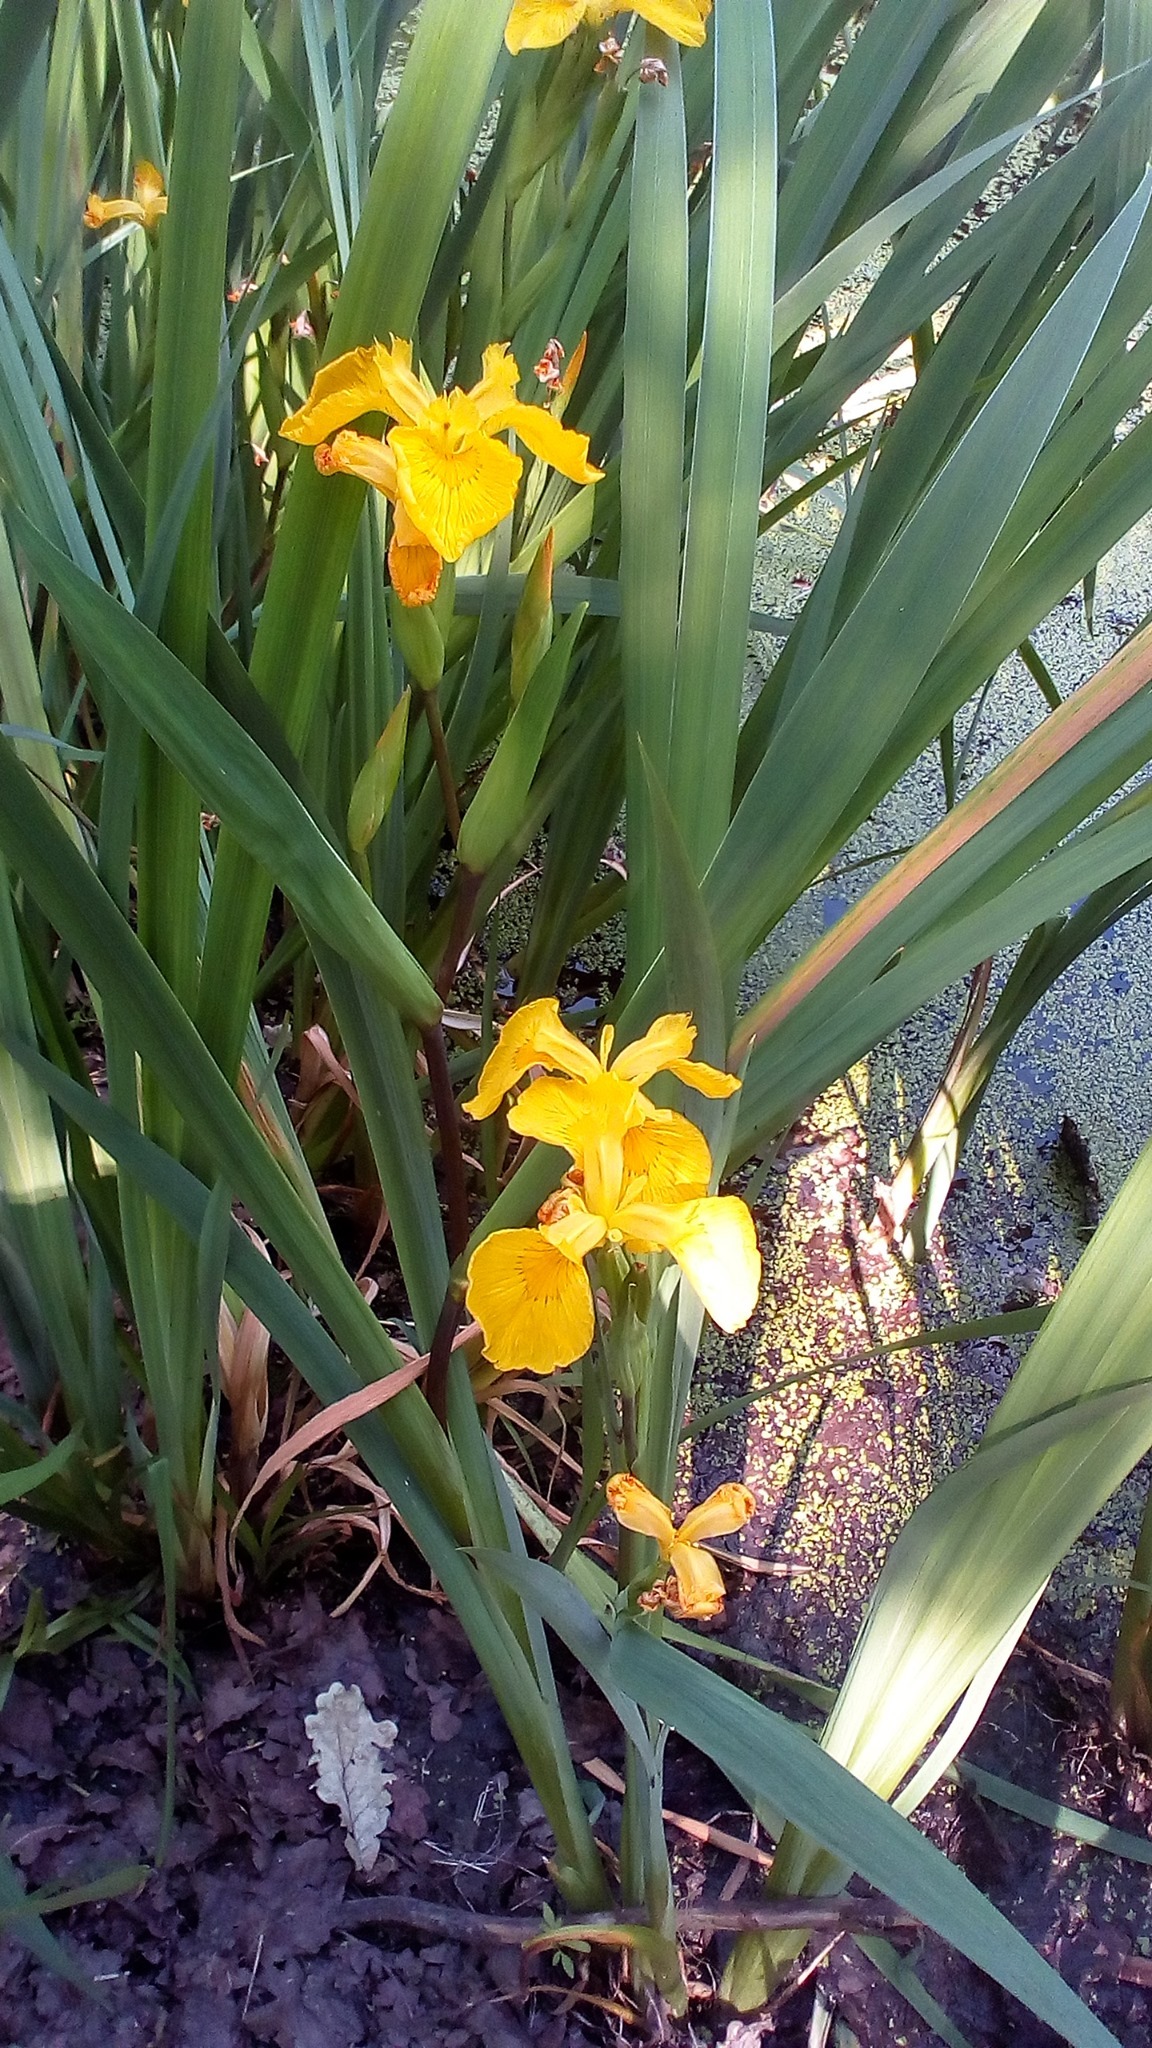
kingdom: Plantae
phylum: Tracheophyta
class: Liliopsida
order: Asparagales
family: Iridaceae
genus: Iris
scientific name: Iris pseudacorus
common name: Yellow flag
